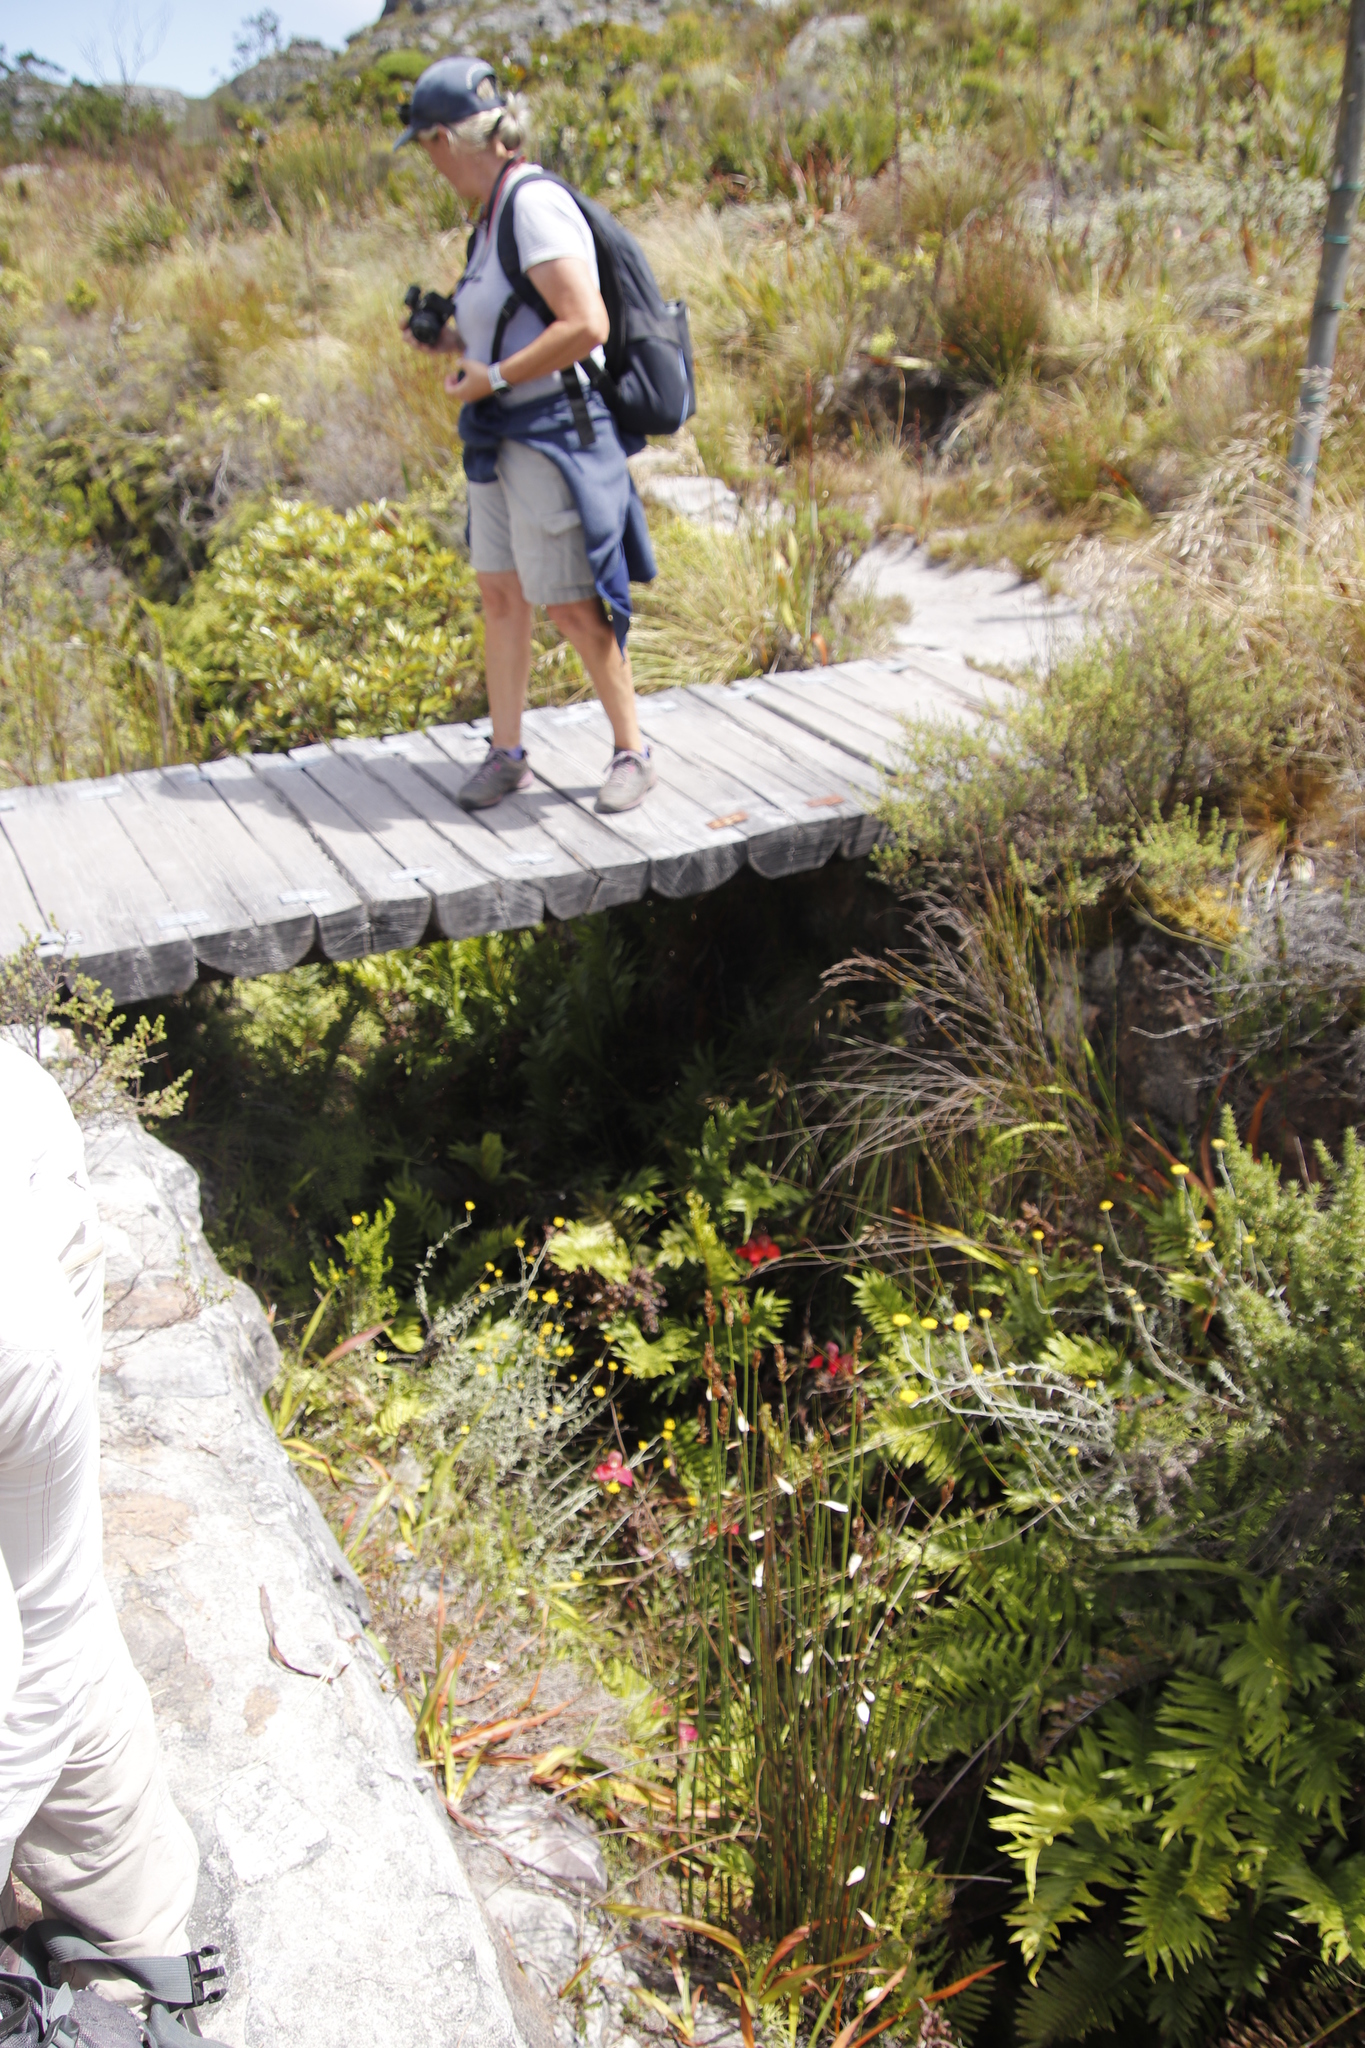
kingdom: Plantae
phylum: Tracheophyta
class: Liliopsida
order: Asparagales
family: Orchidaceae
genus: Disa
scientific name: Disa uniflora
